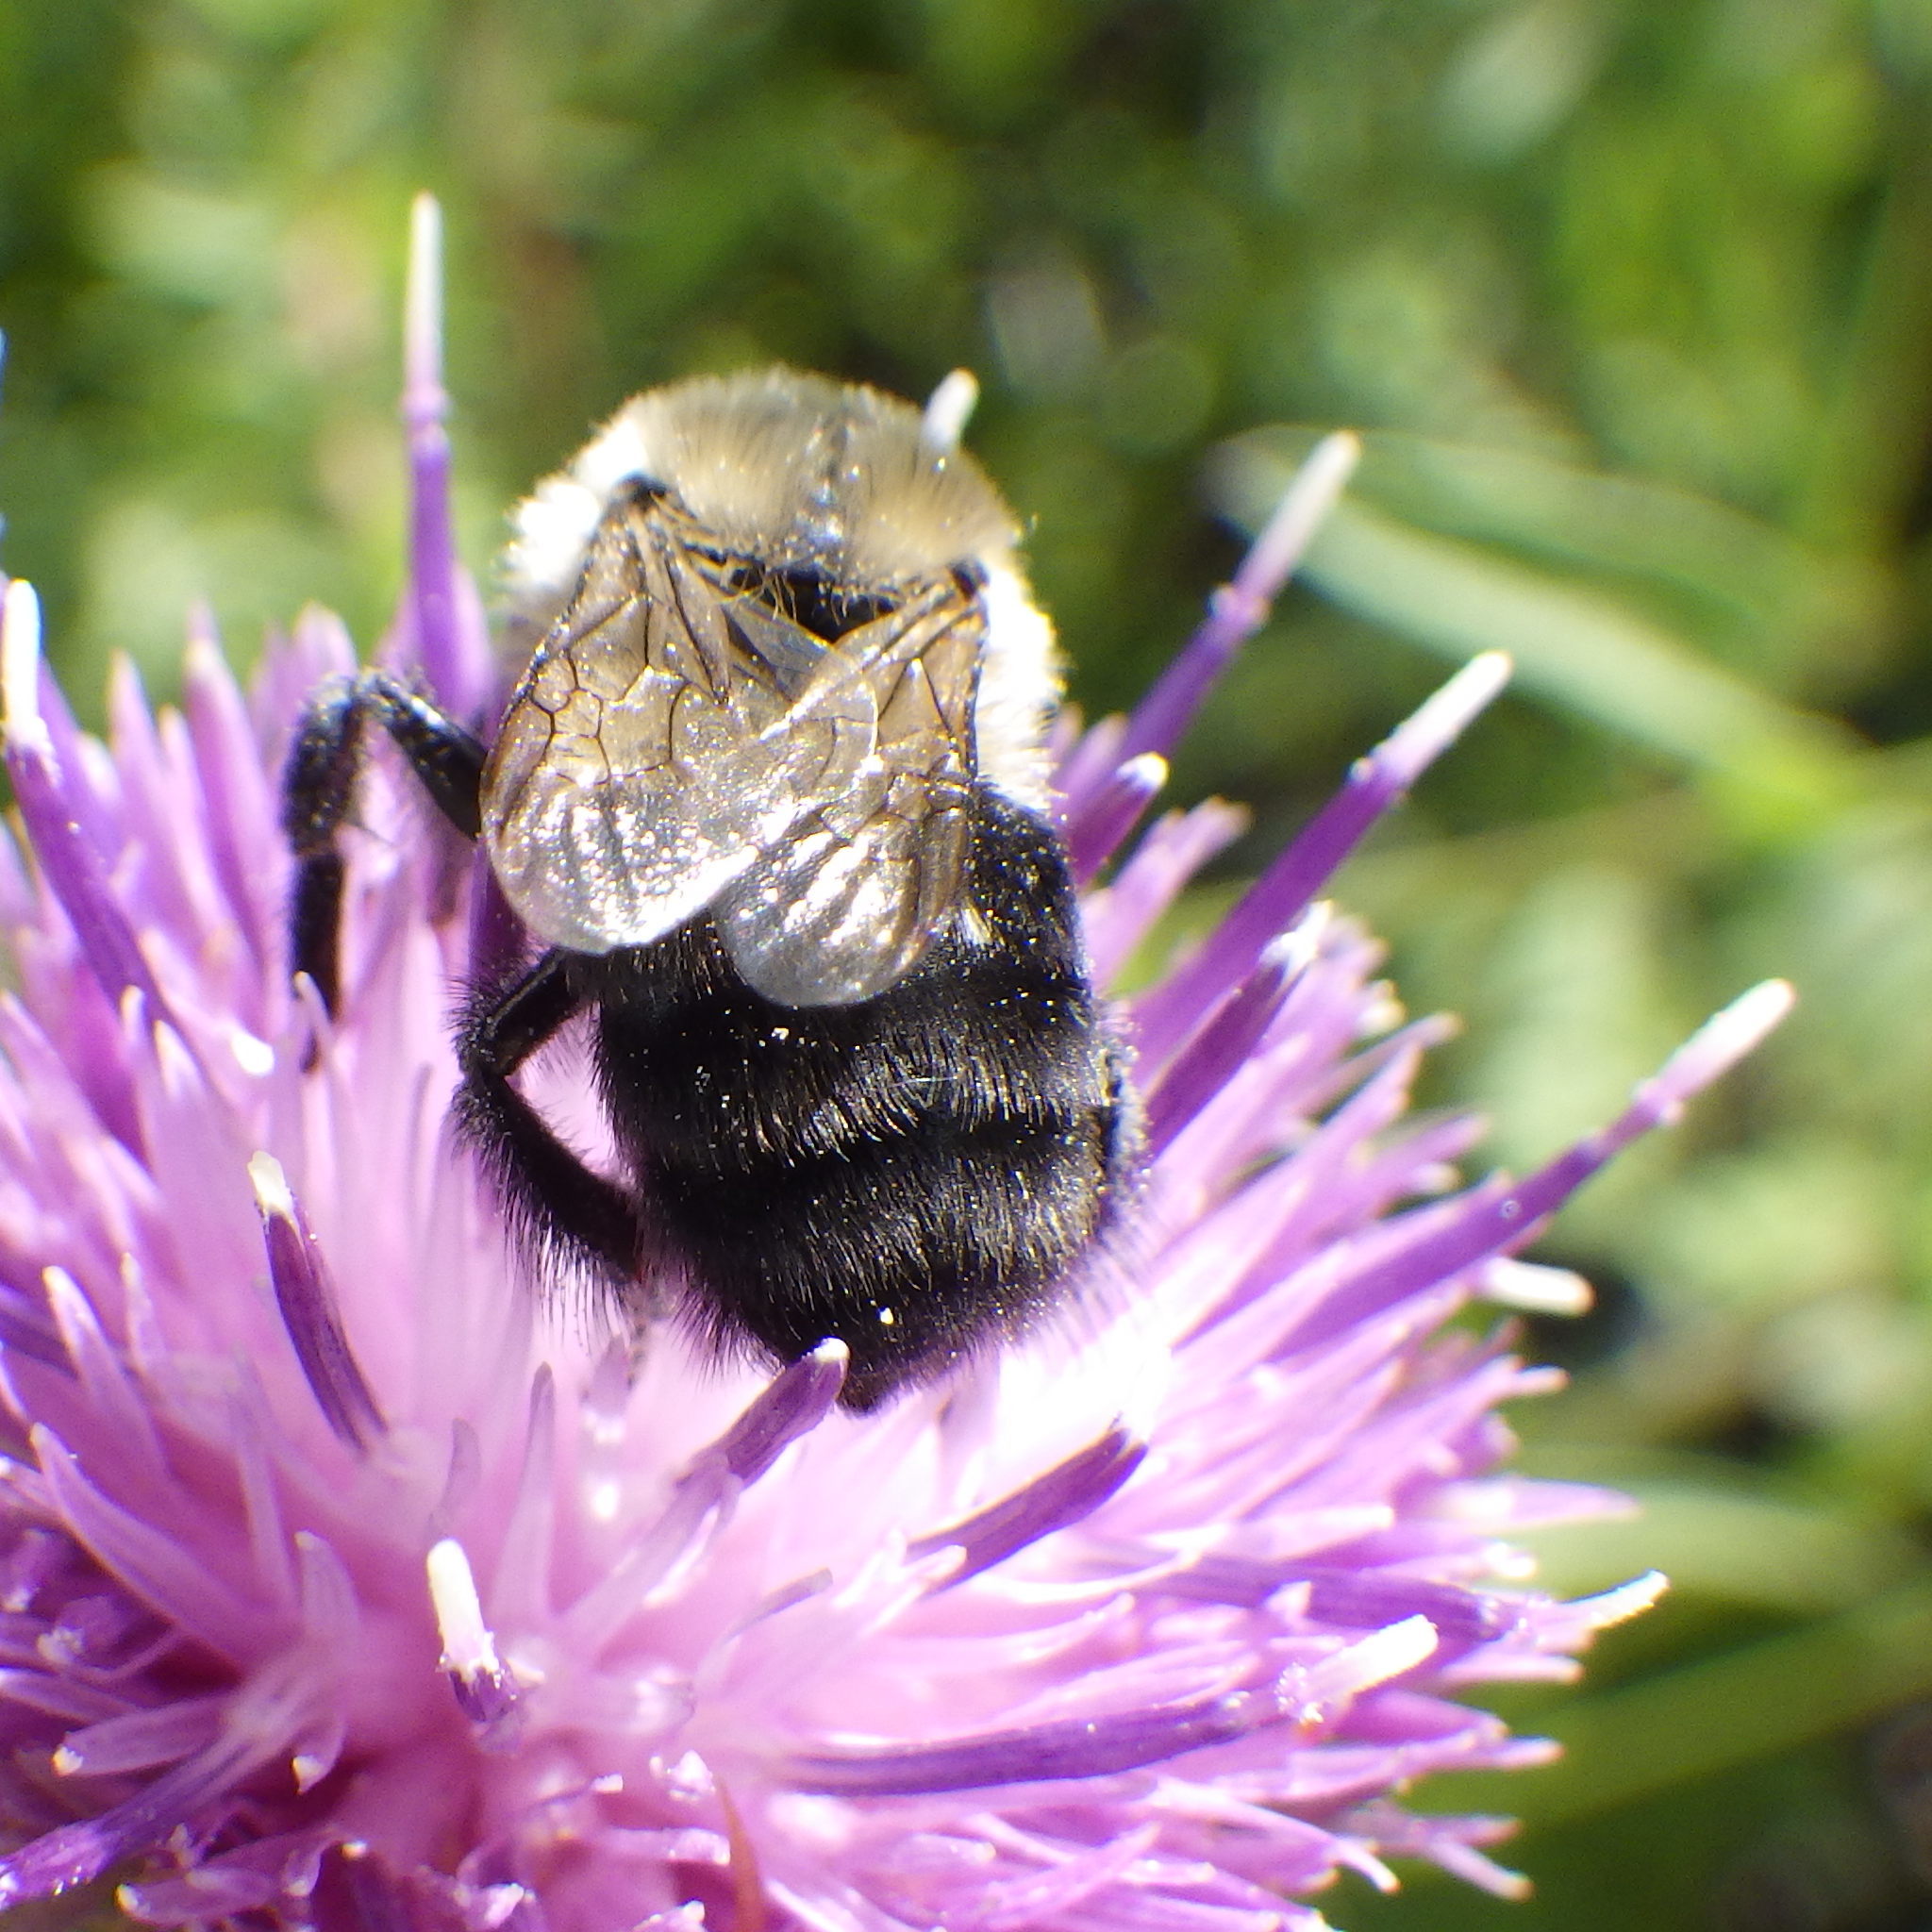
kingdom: Animalia
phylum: Arthropoda
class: Insecta
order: Hymenoptera
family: Apidae
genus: Bombus
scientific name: Bombus impatiens
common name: Common eastern bumble bee
